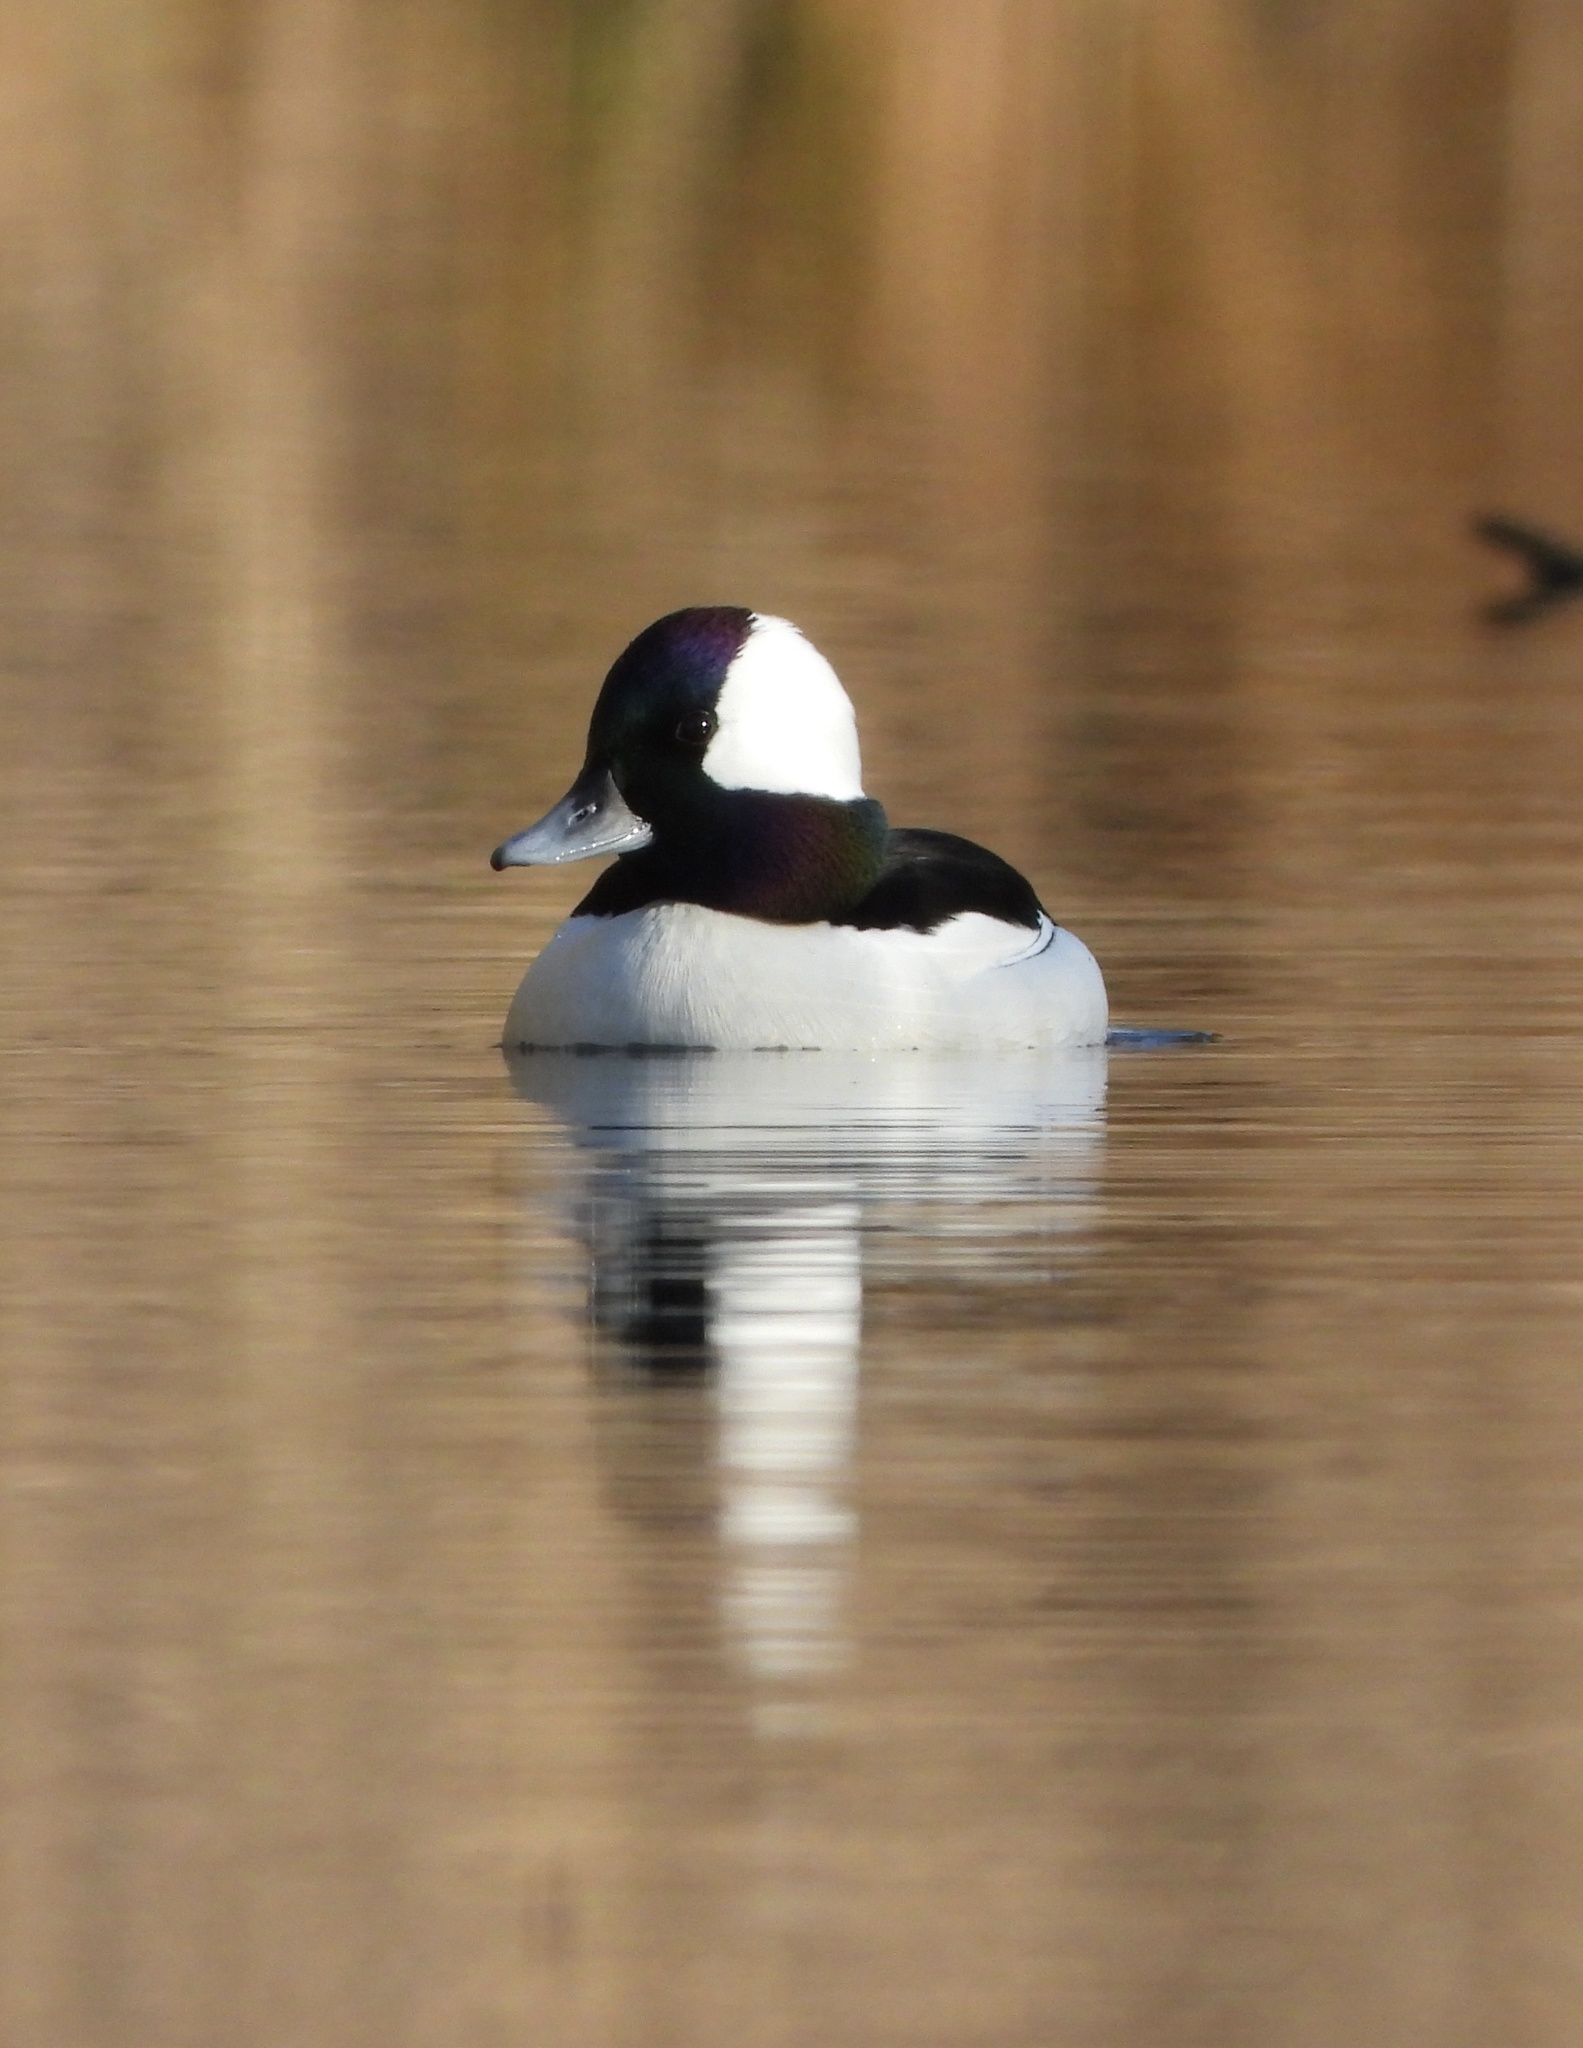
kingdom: Animalia
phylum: Chordata
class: Aves
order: Anseriformes
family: Anatidae
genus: Bucephala
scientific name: Bucephala albeola
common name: Bufflehead
